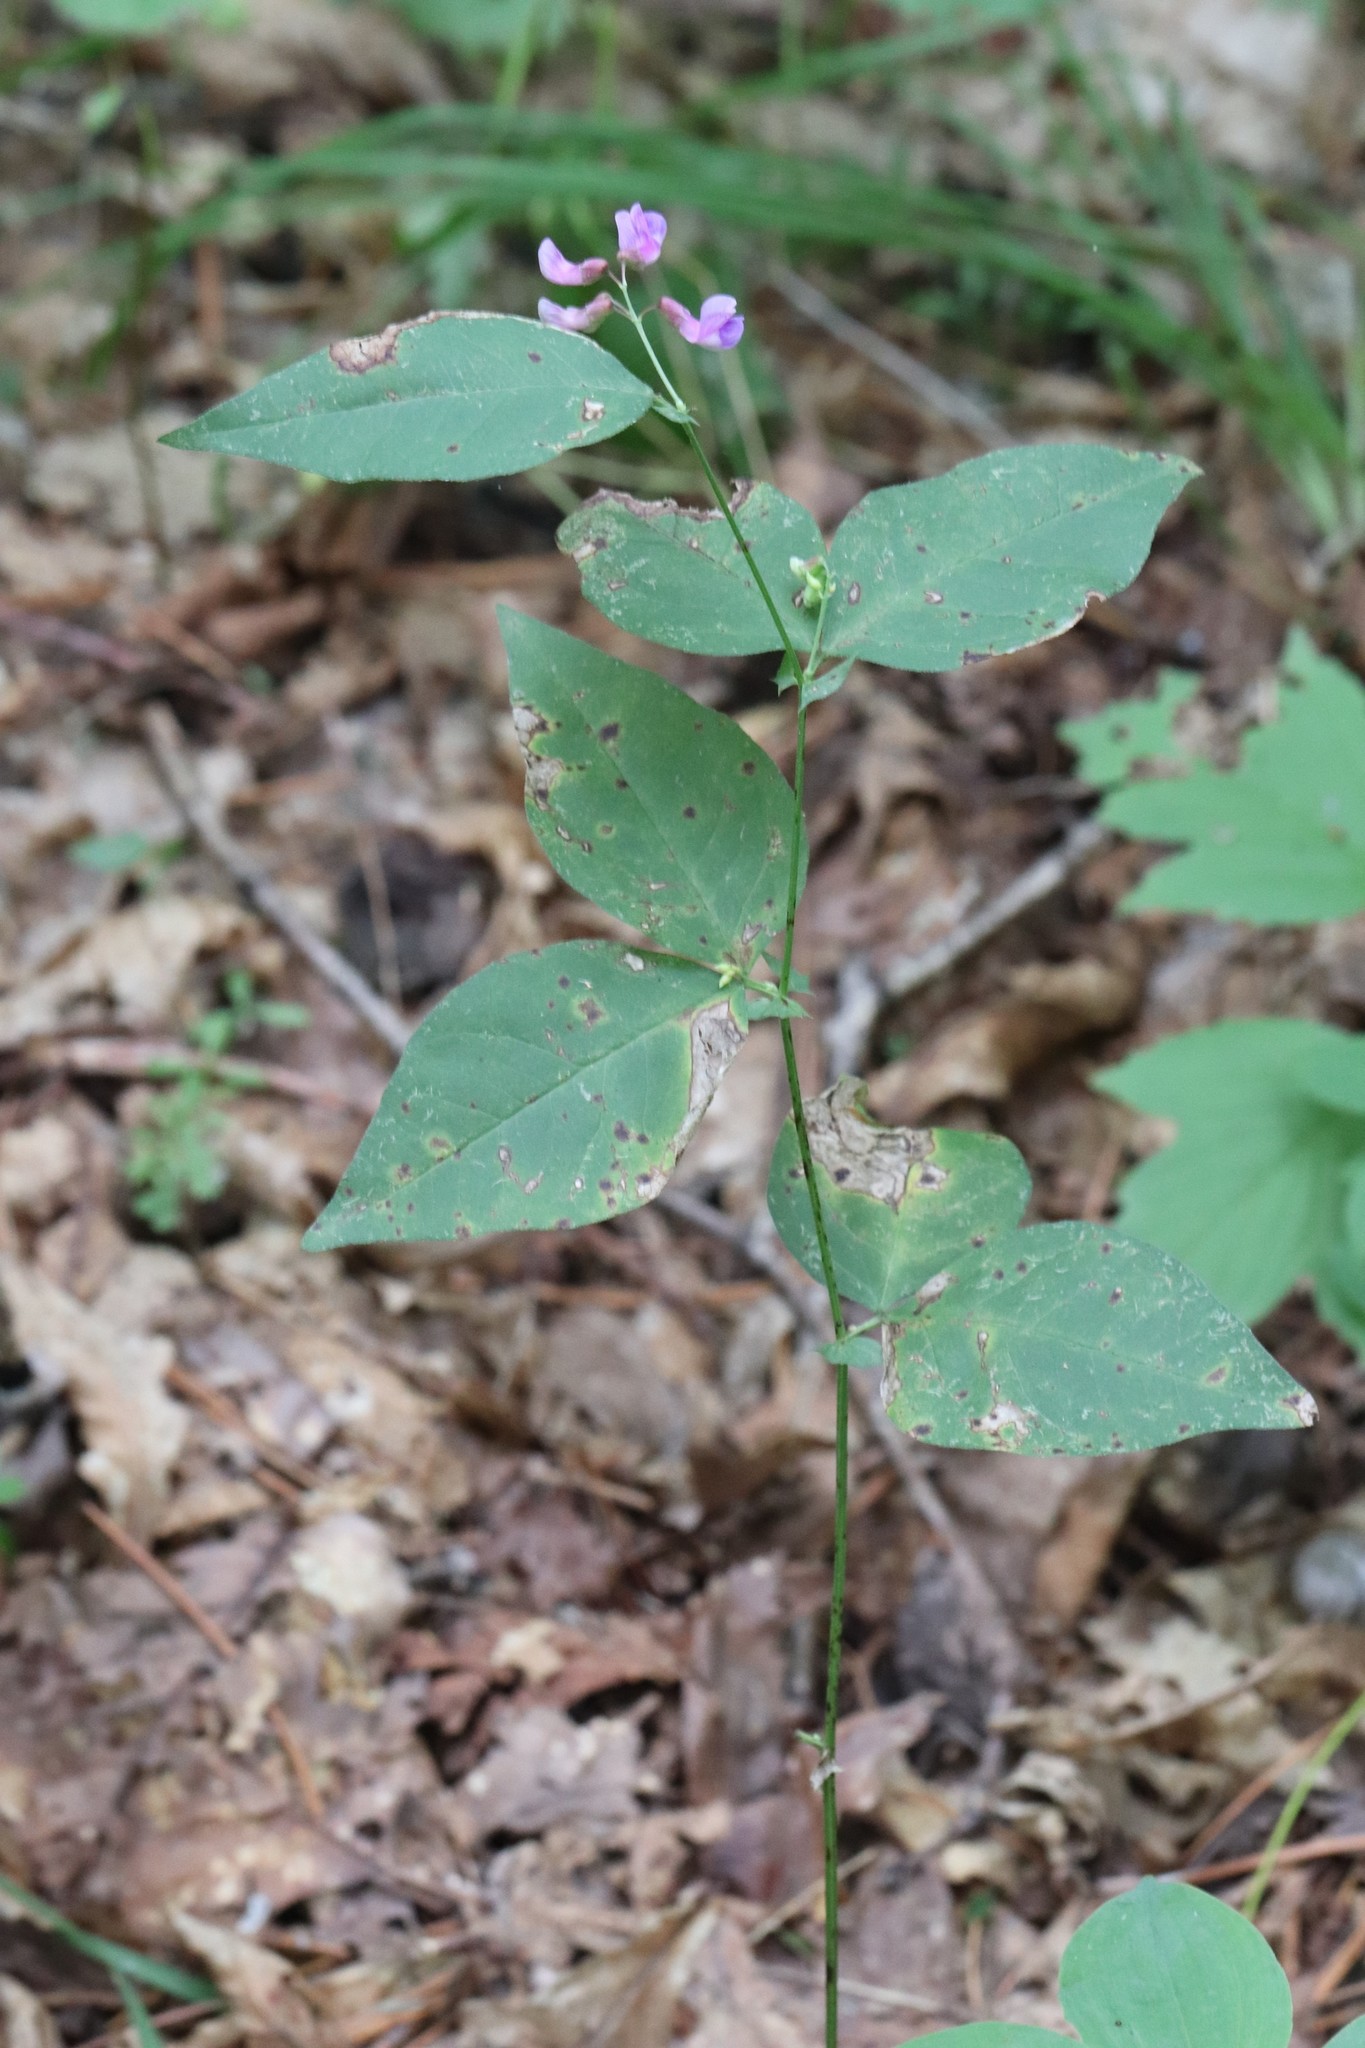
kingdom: Plantae
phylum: Tracheophyta
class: Magnoliopsida
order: Fabales
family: Fabaceae
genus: Vicia
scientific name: Vicia unijuga
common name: Two-leaf vetch
